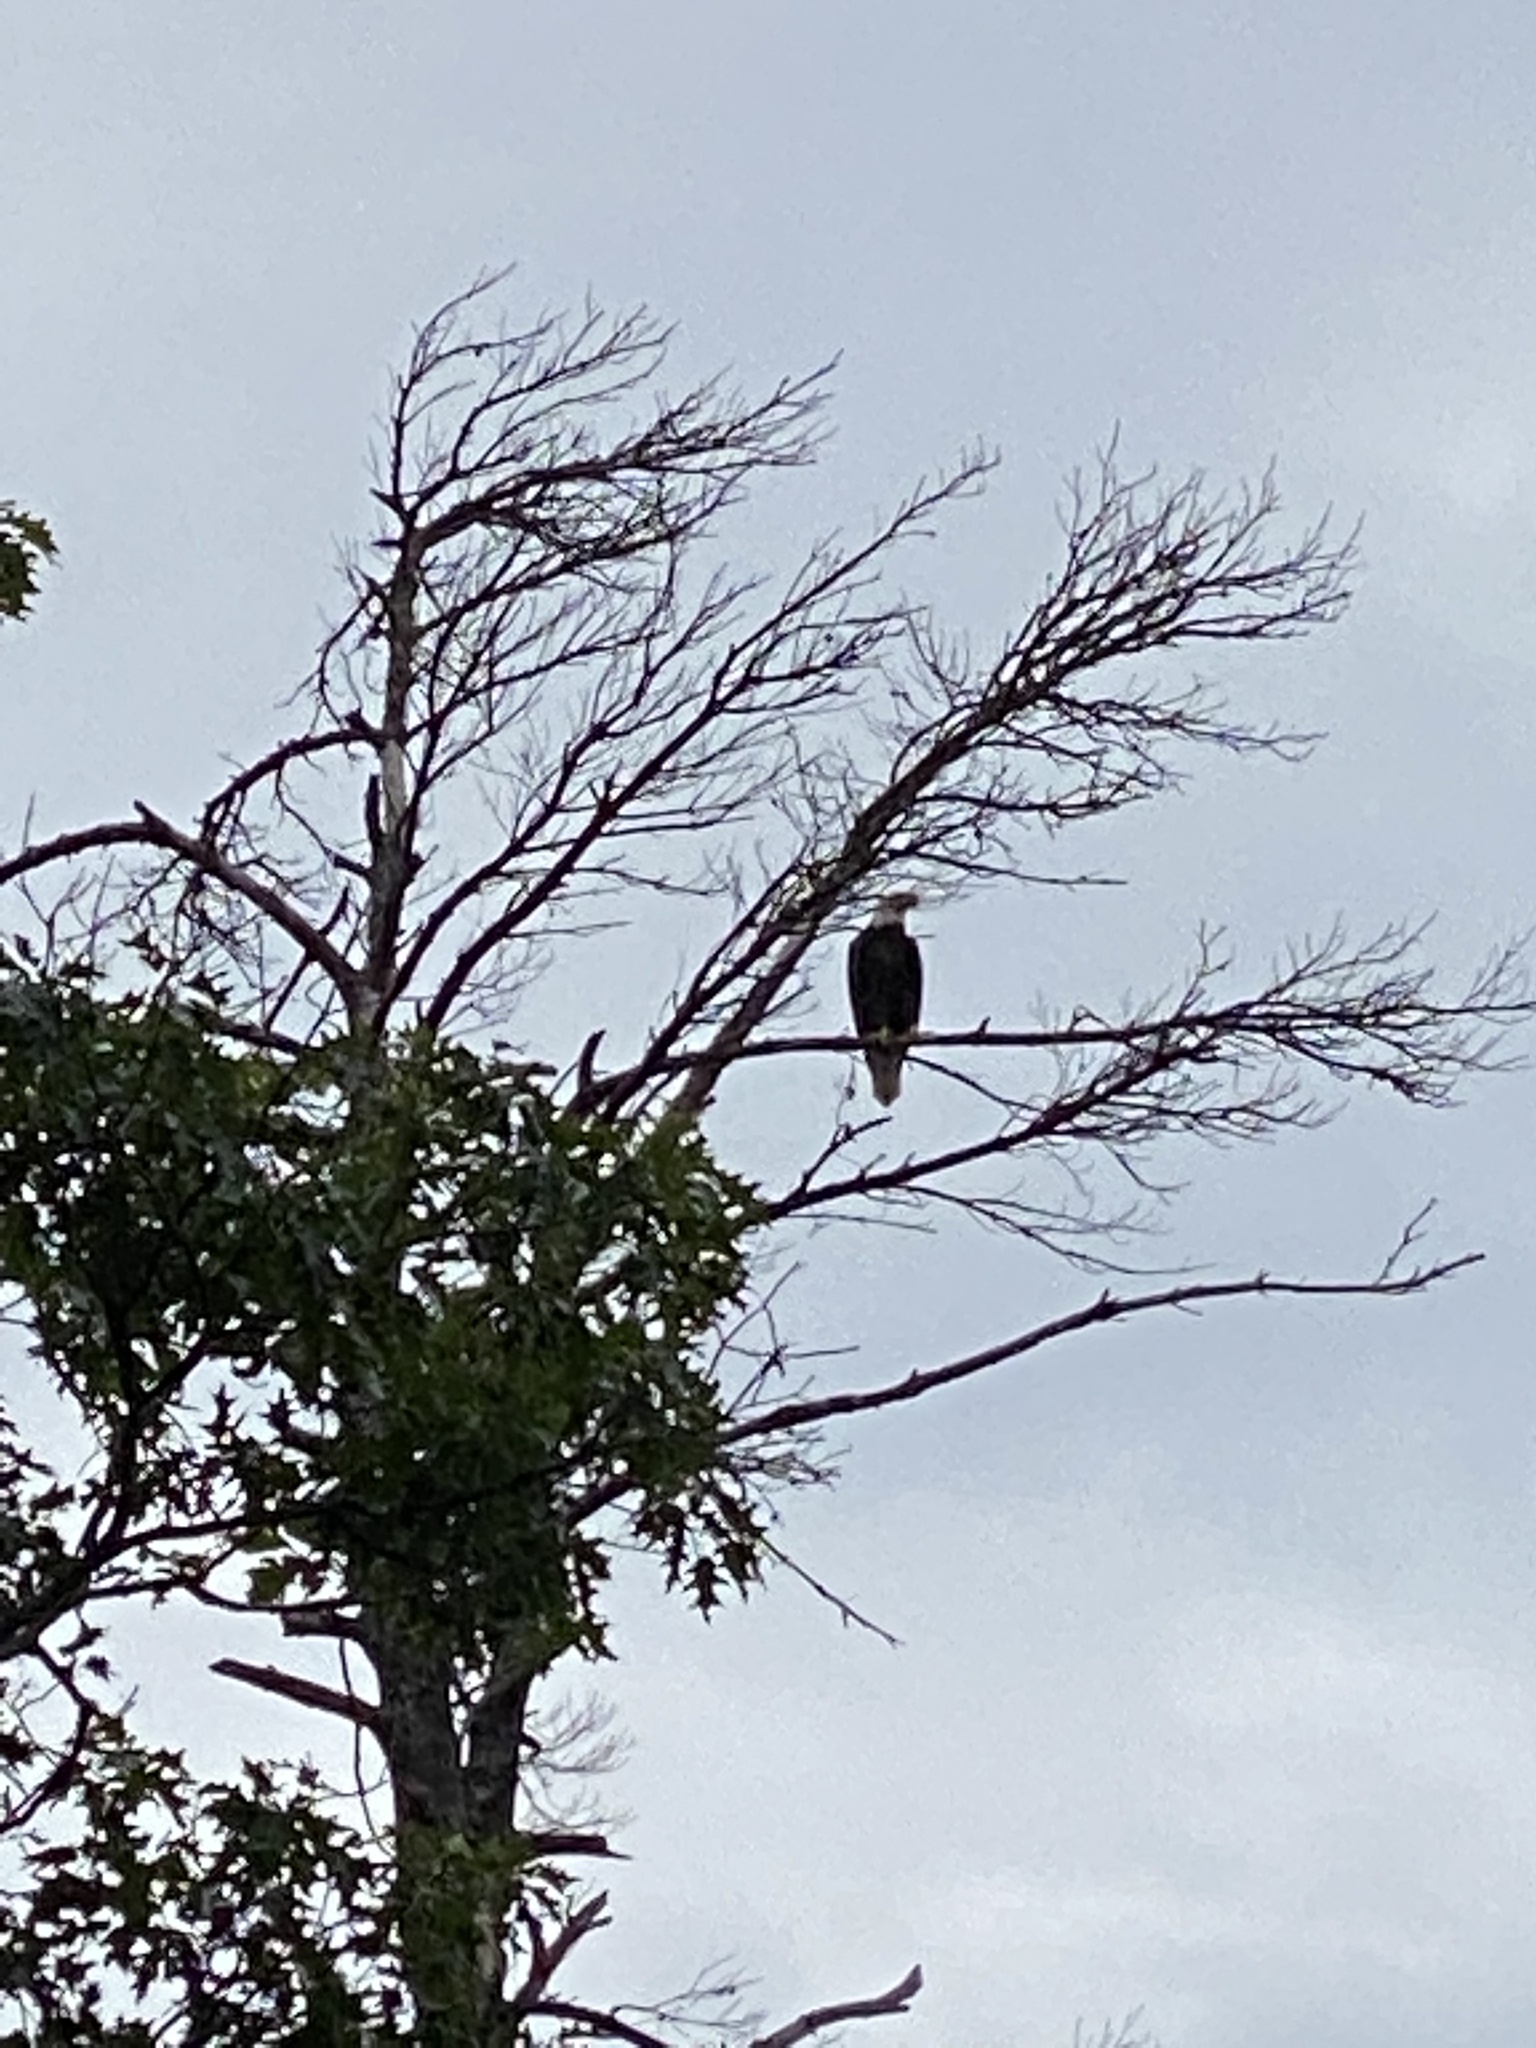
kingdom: Animalia
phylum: Chordata
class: Aves
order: Accipitriformes
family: Accipitridae
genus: Haliaeetus
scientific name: Haliaeetus leucocephalus
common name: Bald eagle
